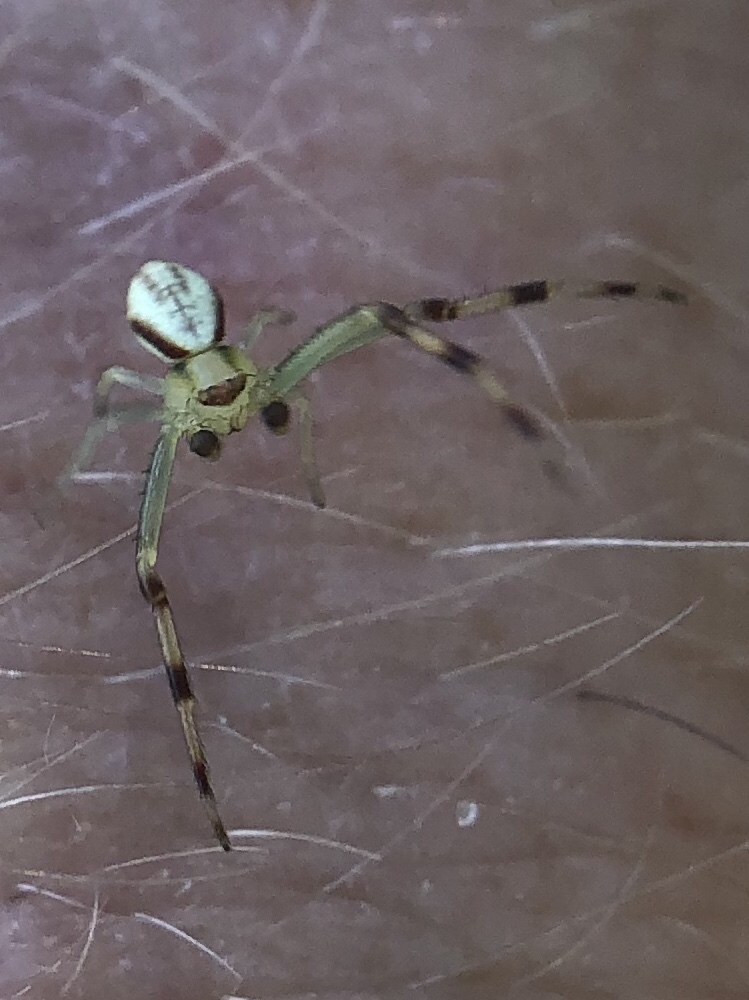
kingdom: Animalia
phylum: Arthropoda
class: Arachnida
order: Araneae
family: Thomisidae
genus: Misumena
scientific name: Misumena vatia
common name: Goldenrod crab spider
